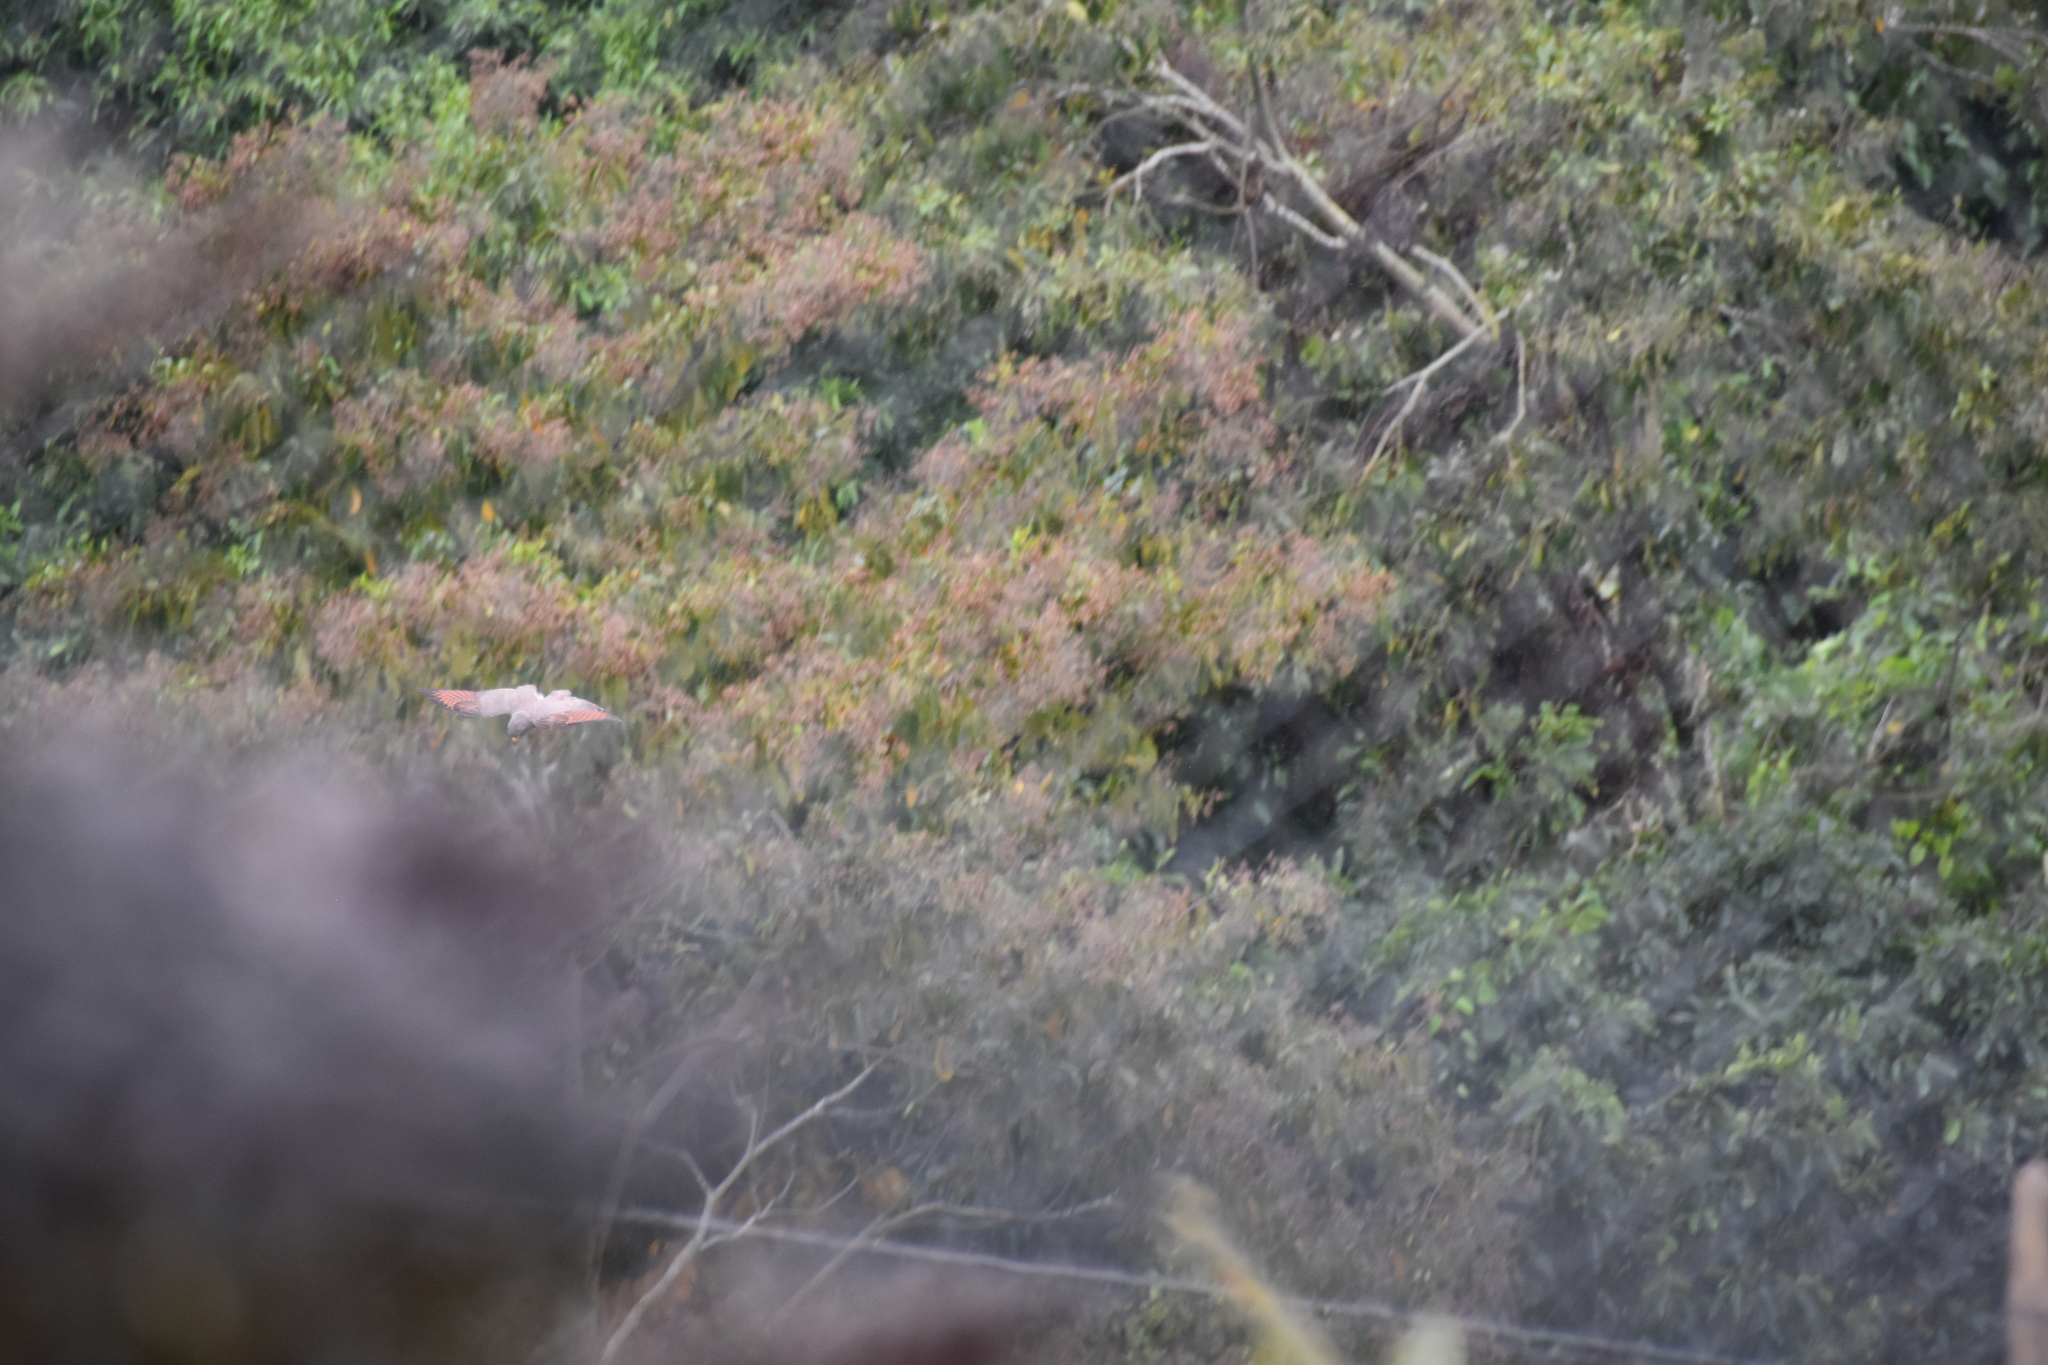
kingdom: Animalia
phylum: Chordata
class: Aves
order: Accipitriformes
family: Accipitridae
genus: Rupornis
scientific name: Rupornis magnirostris
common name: Roadside hawk
